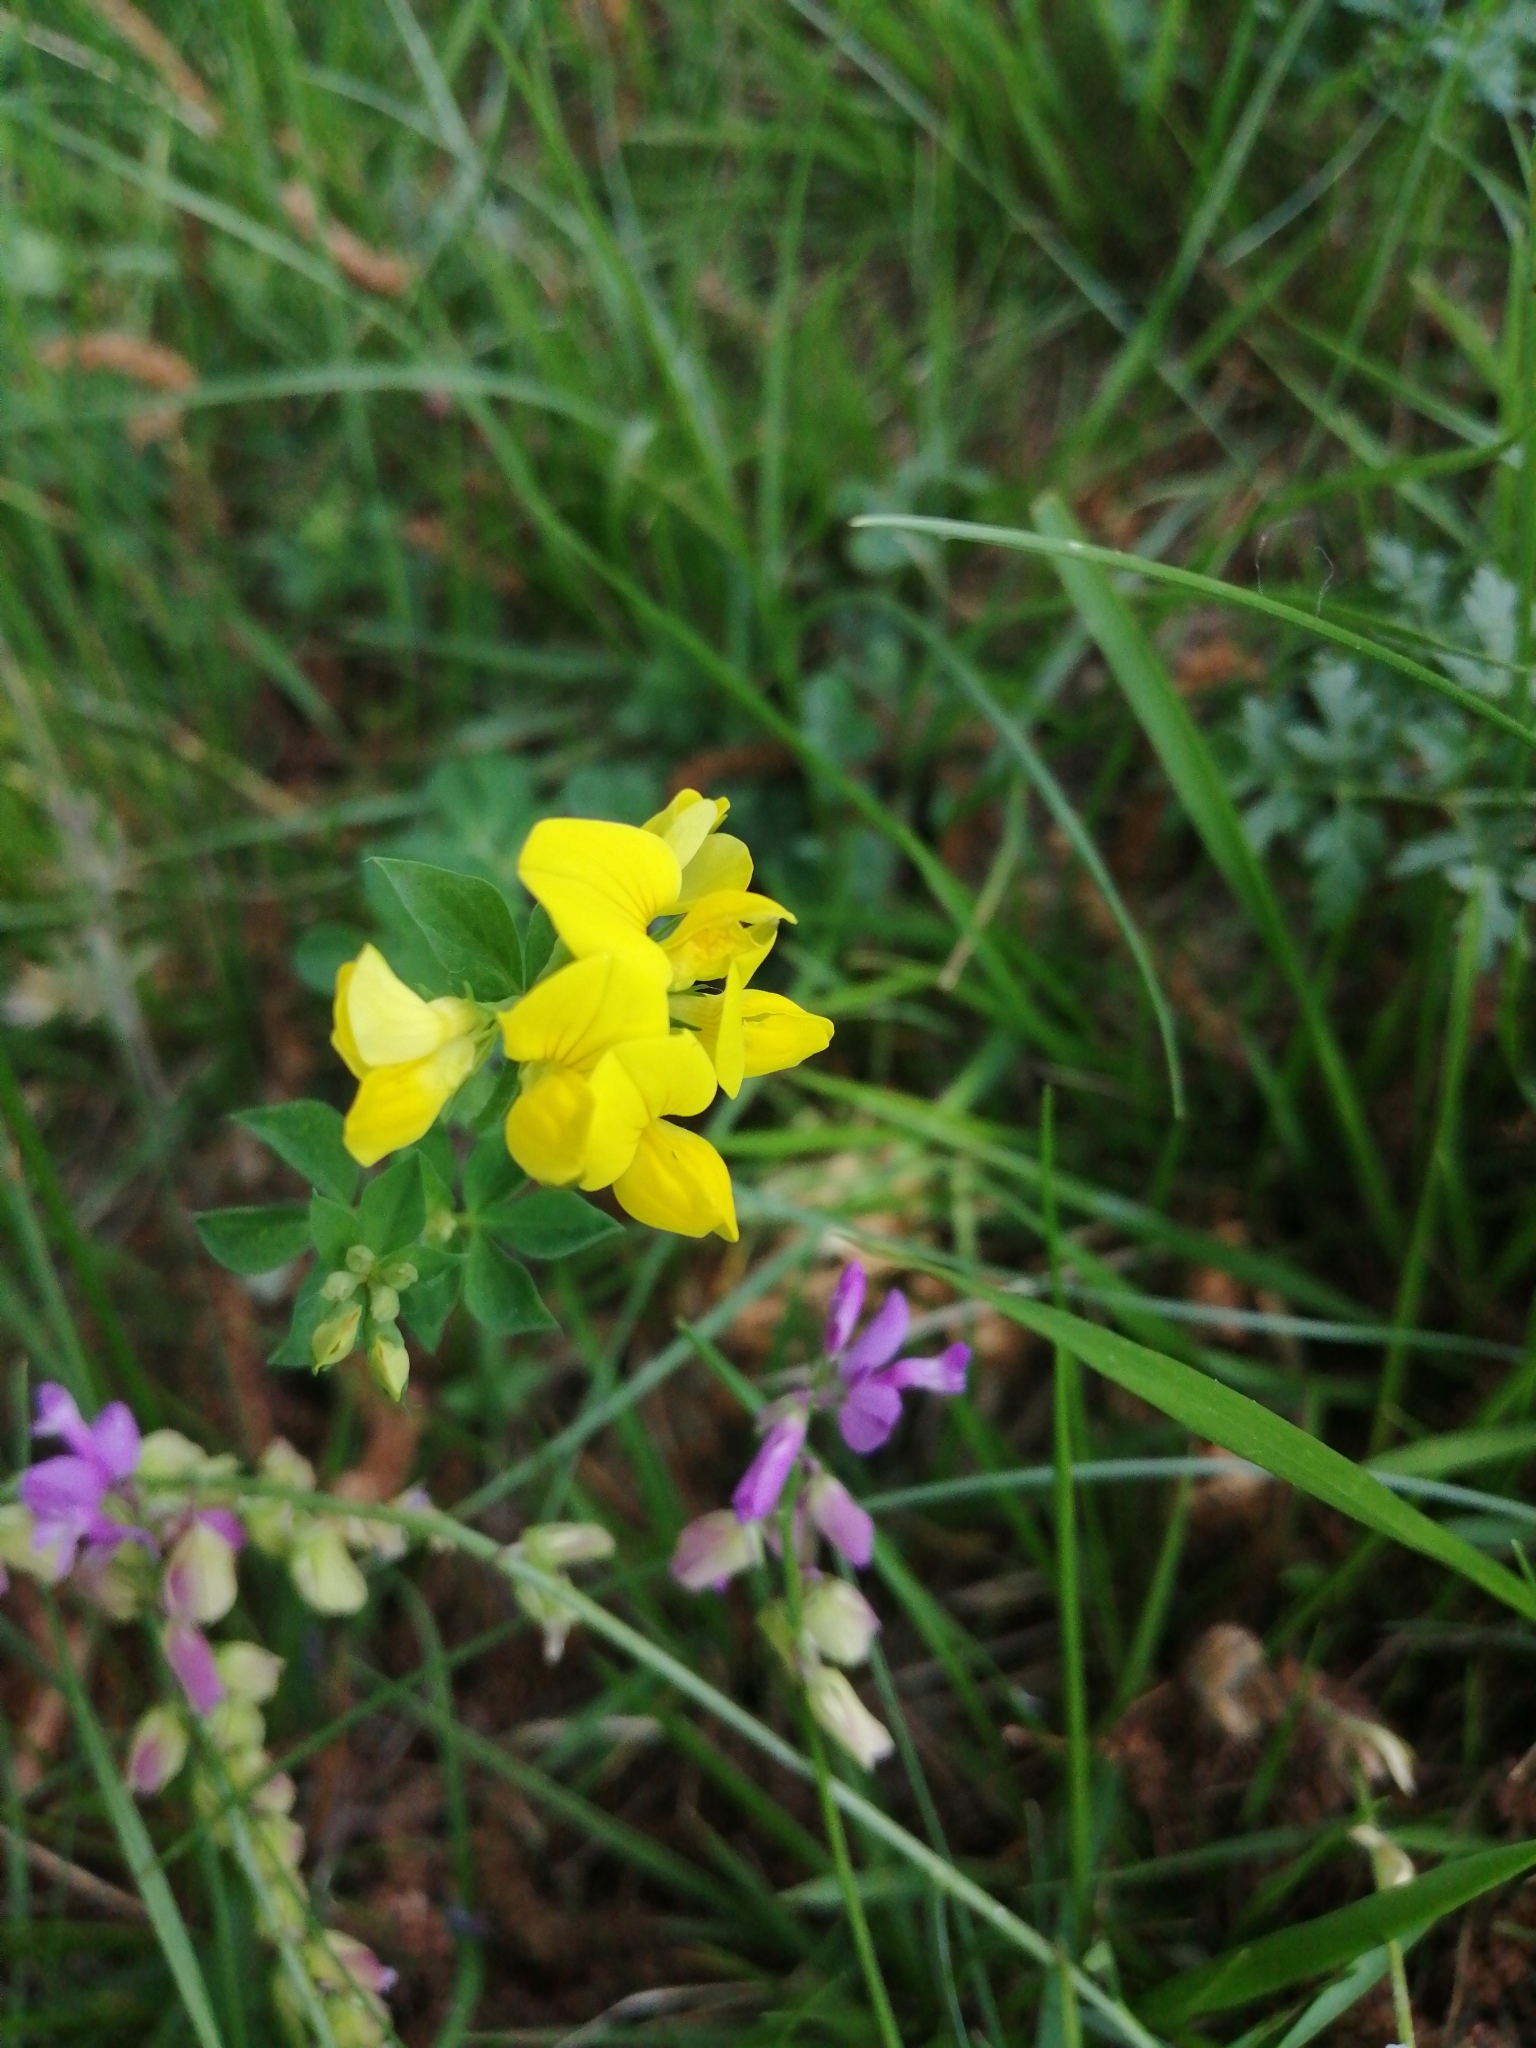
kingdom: Plantae
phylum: Tracheophyta
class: Magnoliopsida
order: Fabales
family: Fabaceae
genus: Lotus
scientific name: Lotus corniculatus
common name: Common bird's-foot-trefoil
